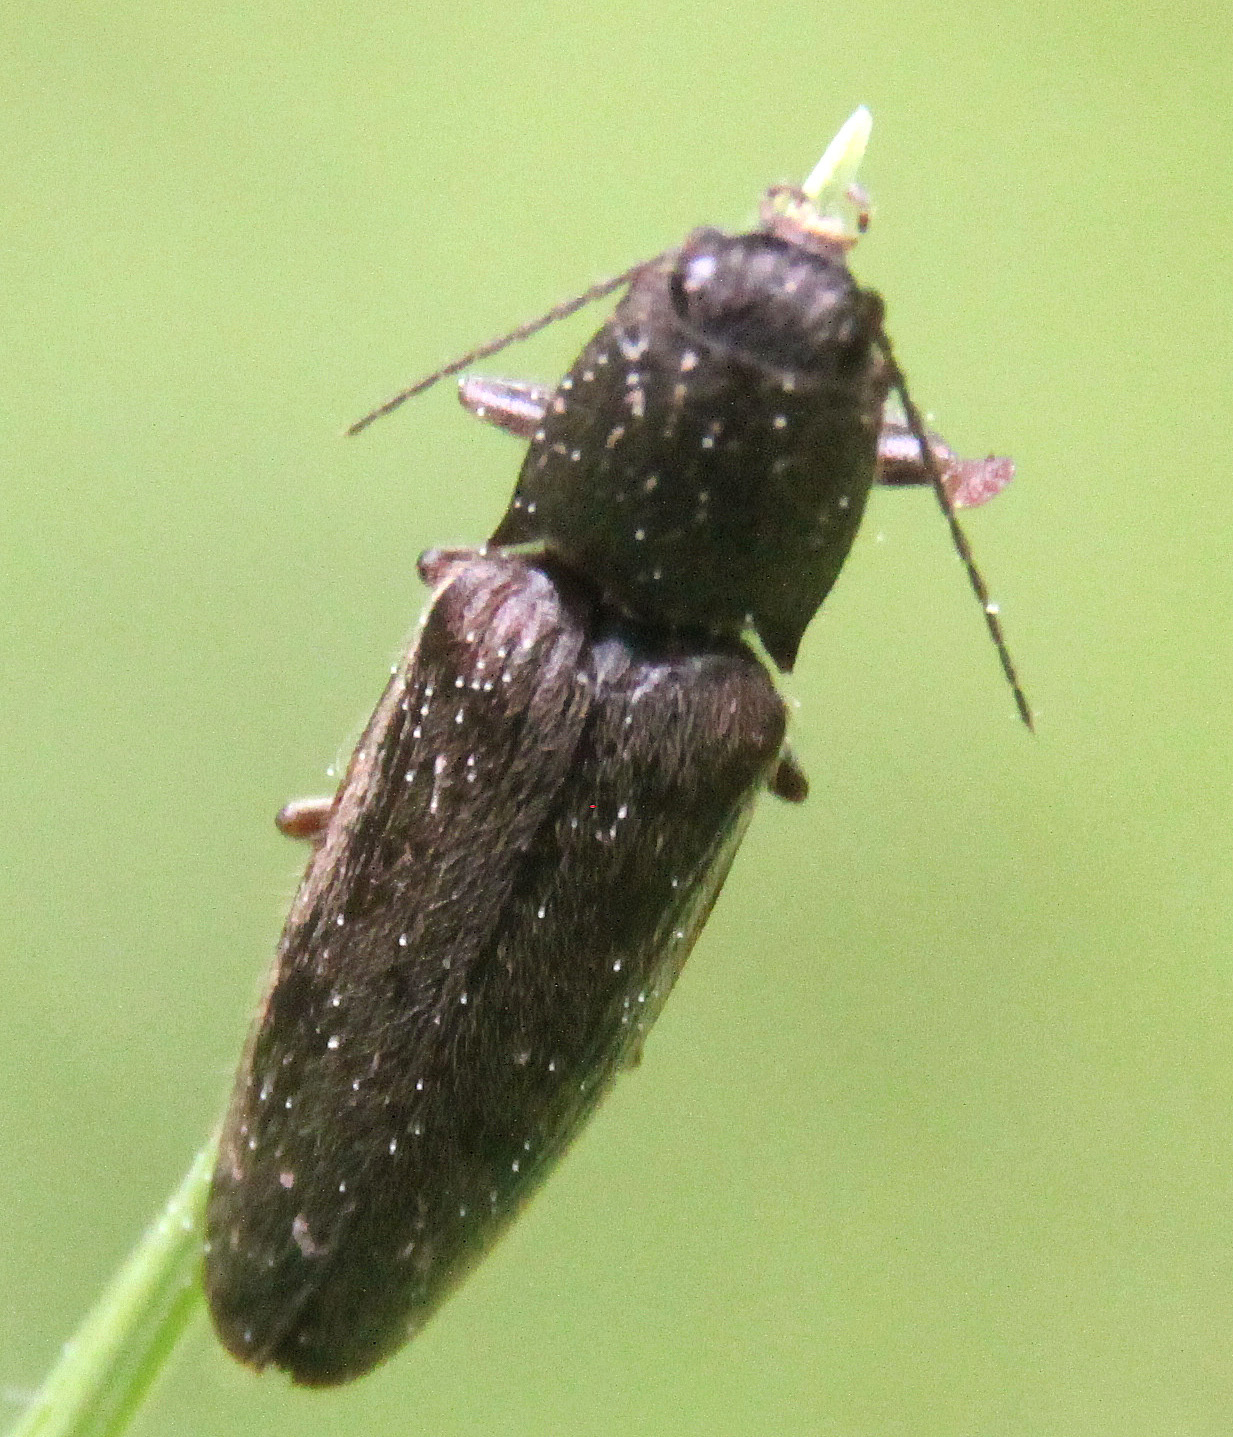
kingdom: Animalia
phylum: Arthropoda
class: Insecta
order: Coleoptera
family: Elateridae
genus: Athous
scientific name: Athous
